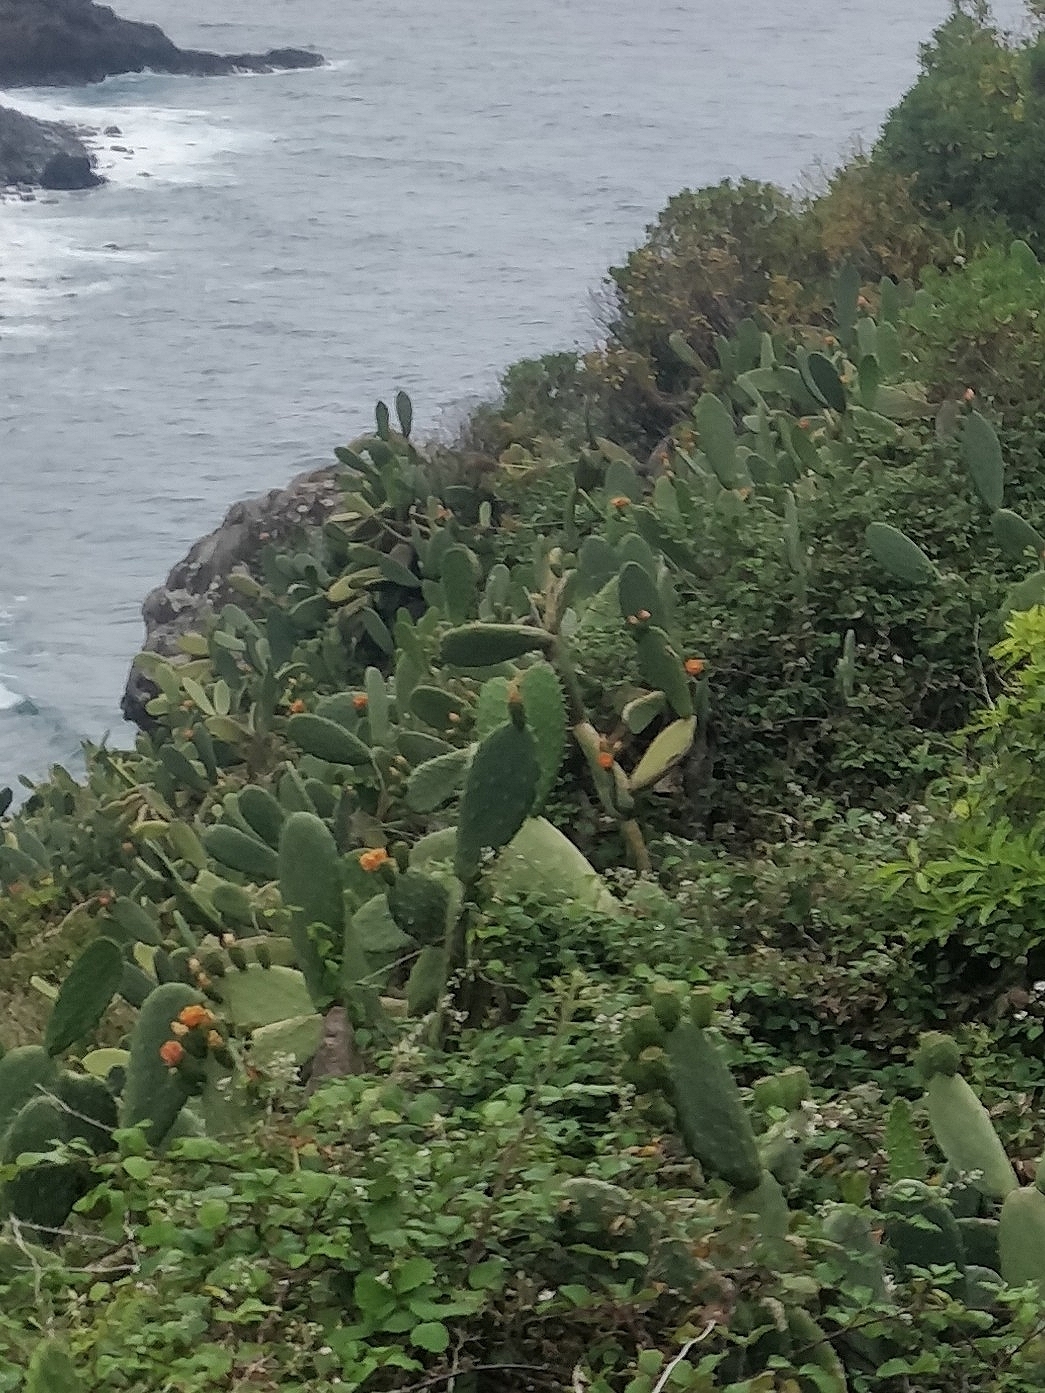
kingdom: Plantae
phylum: Tracheophyta
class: Magnoliopsida
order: Caryophyllales
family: Cactaceae
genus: Opuntia
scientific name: Opuntia ficus-indica
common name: Barbary fig
